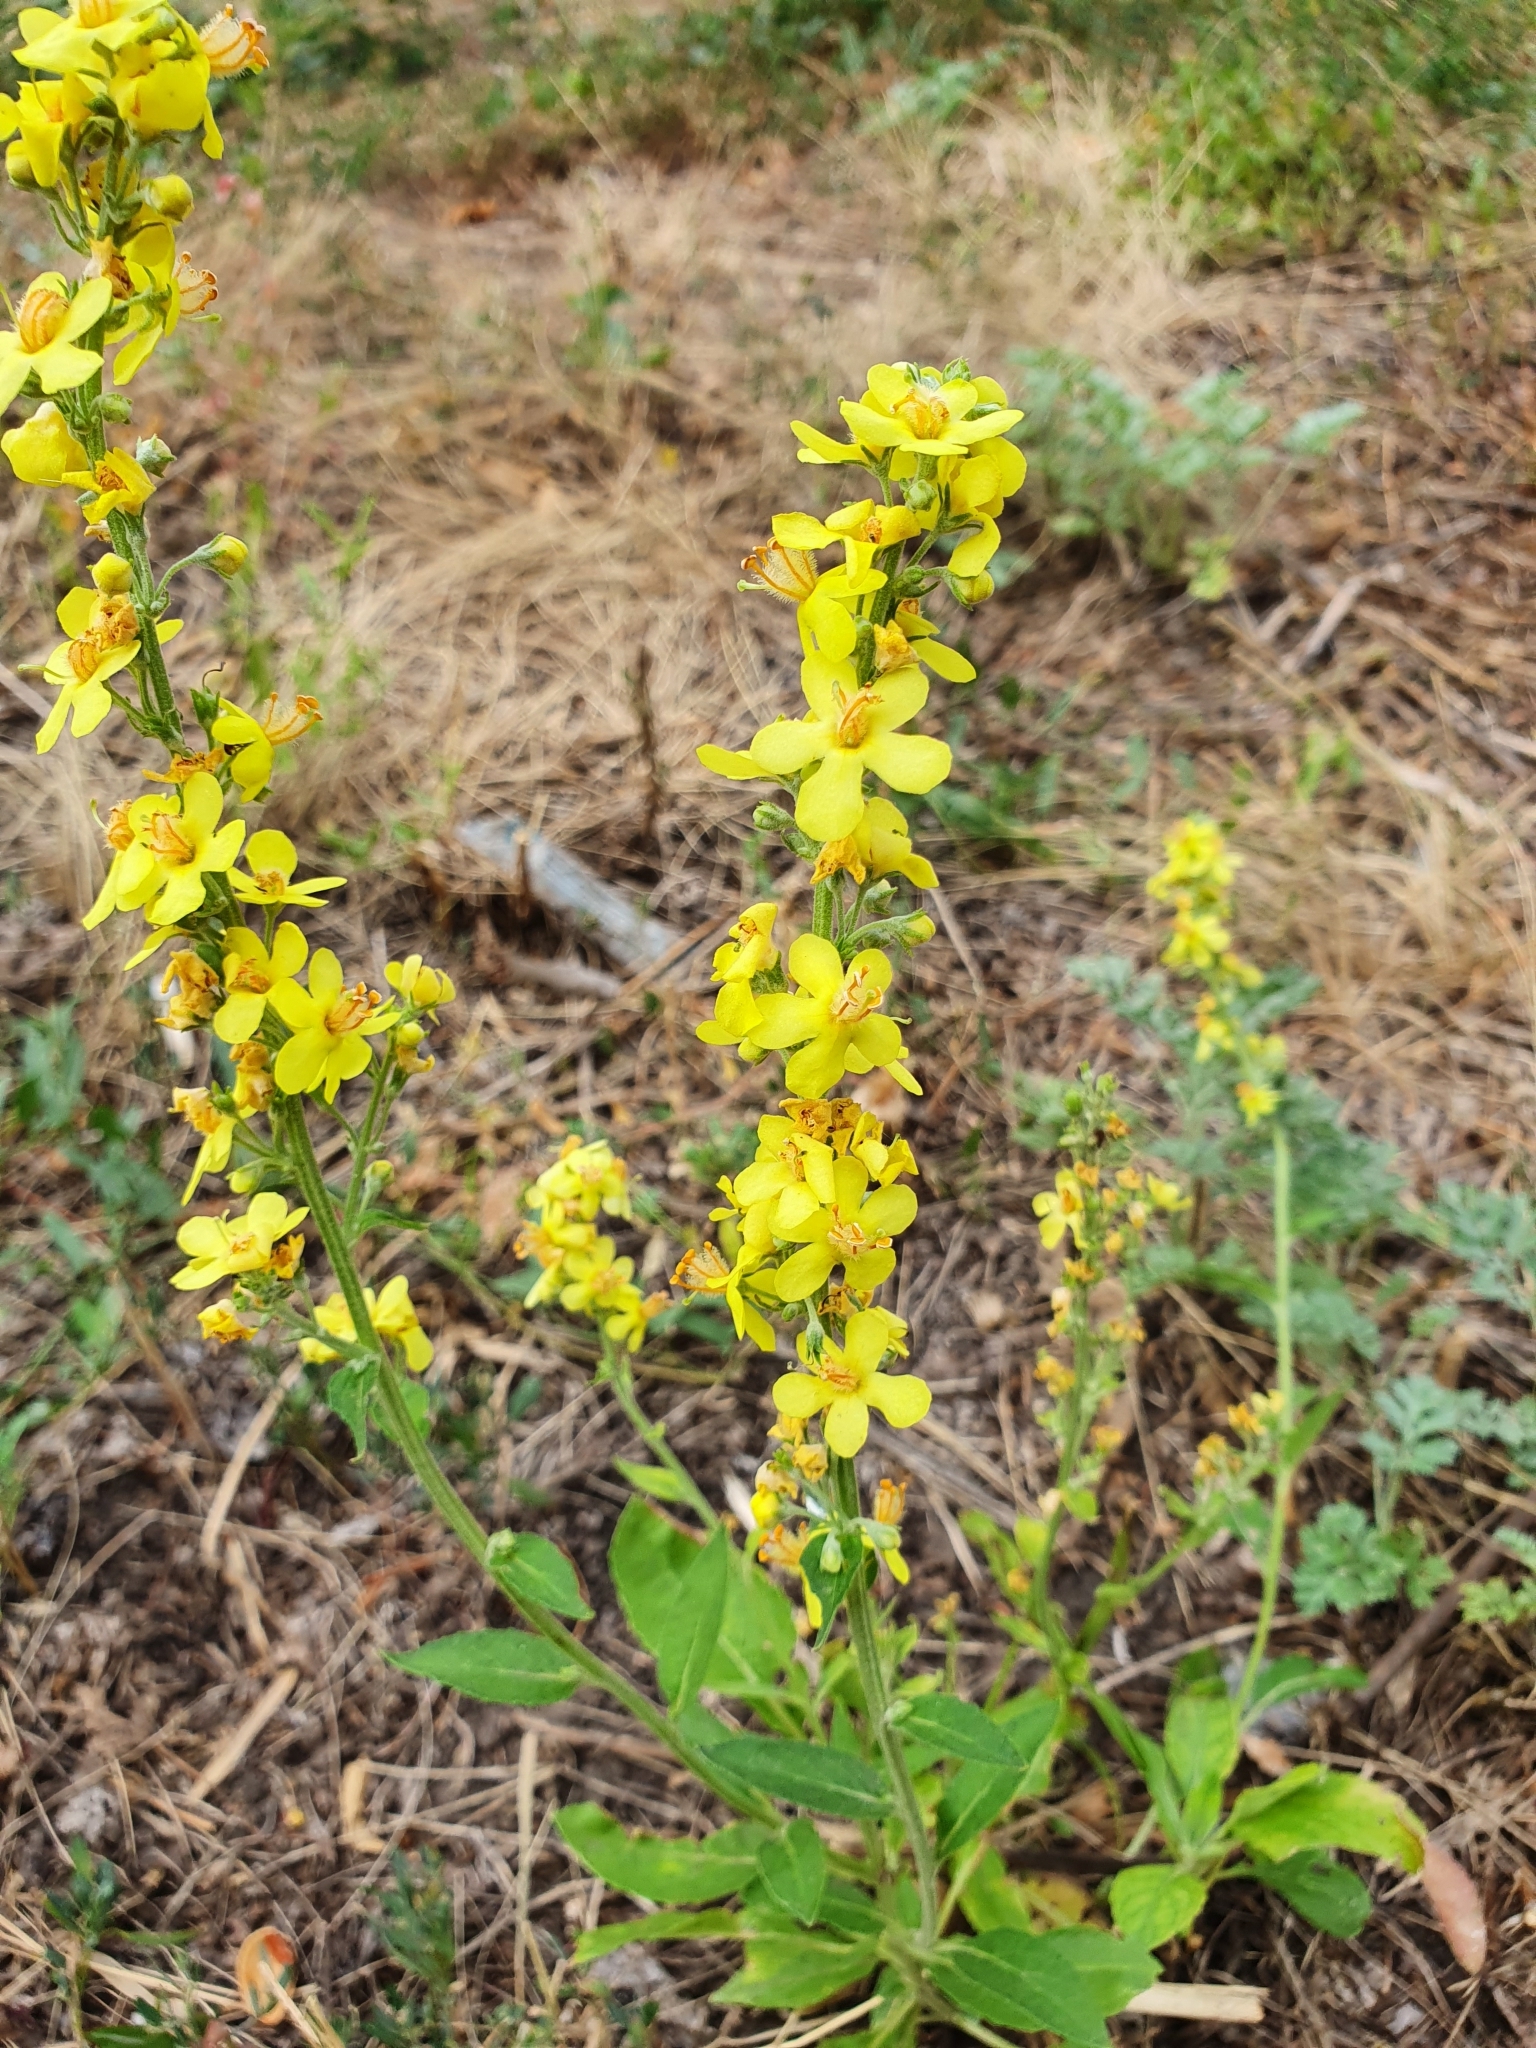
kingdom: Plantae
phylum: Tracheophyta
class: Magnoliopsida
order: Lamiales
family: Scrophulariaceae
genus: Verbascum
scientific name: Verbascum lychnitis
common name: White mullein
